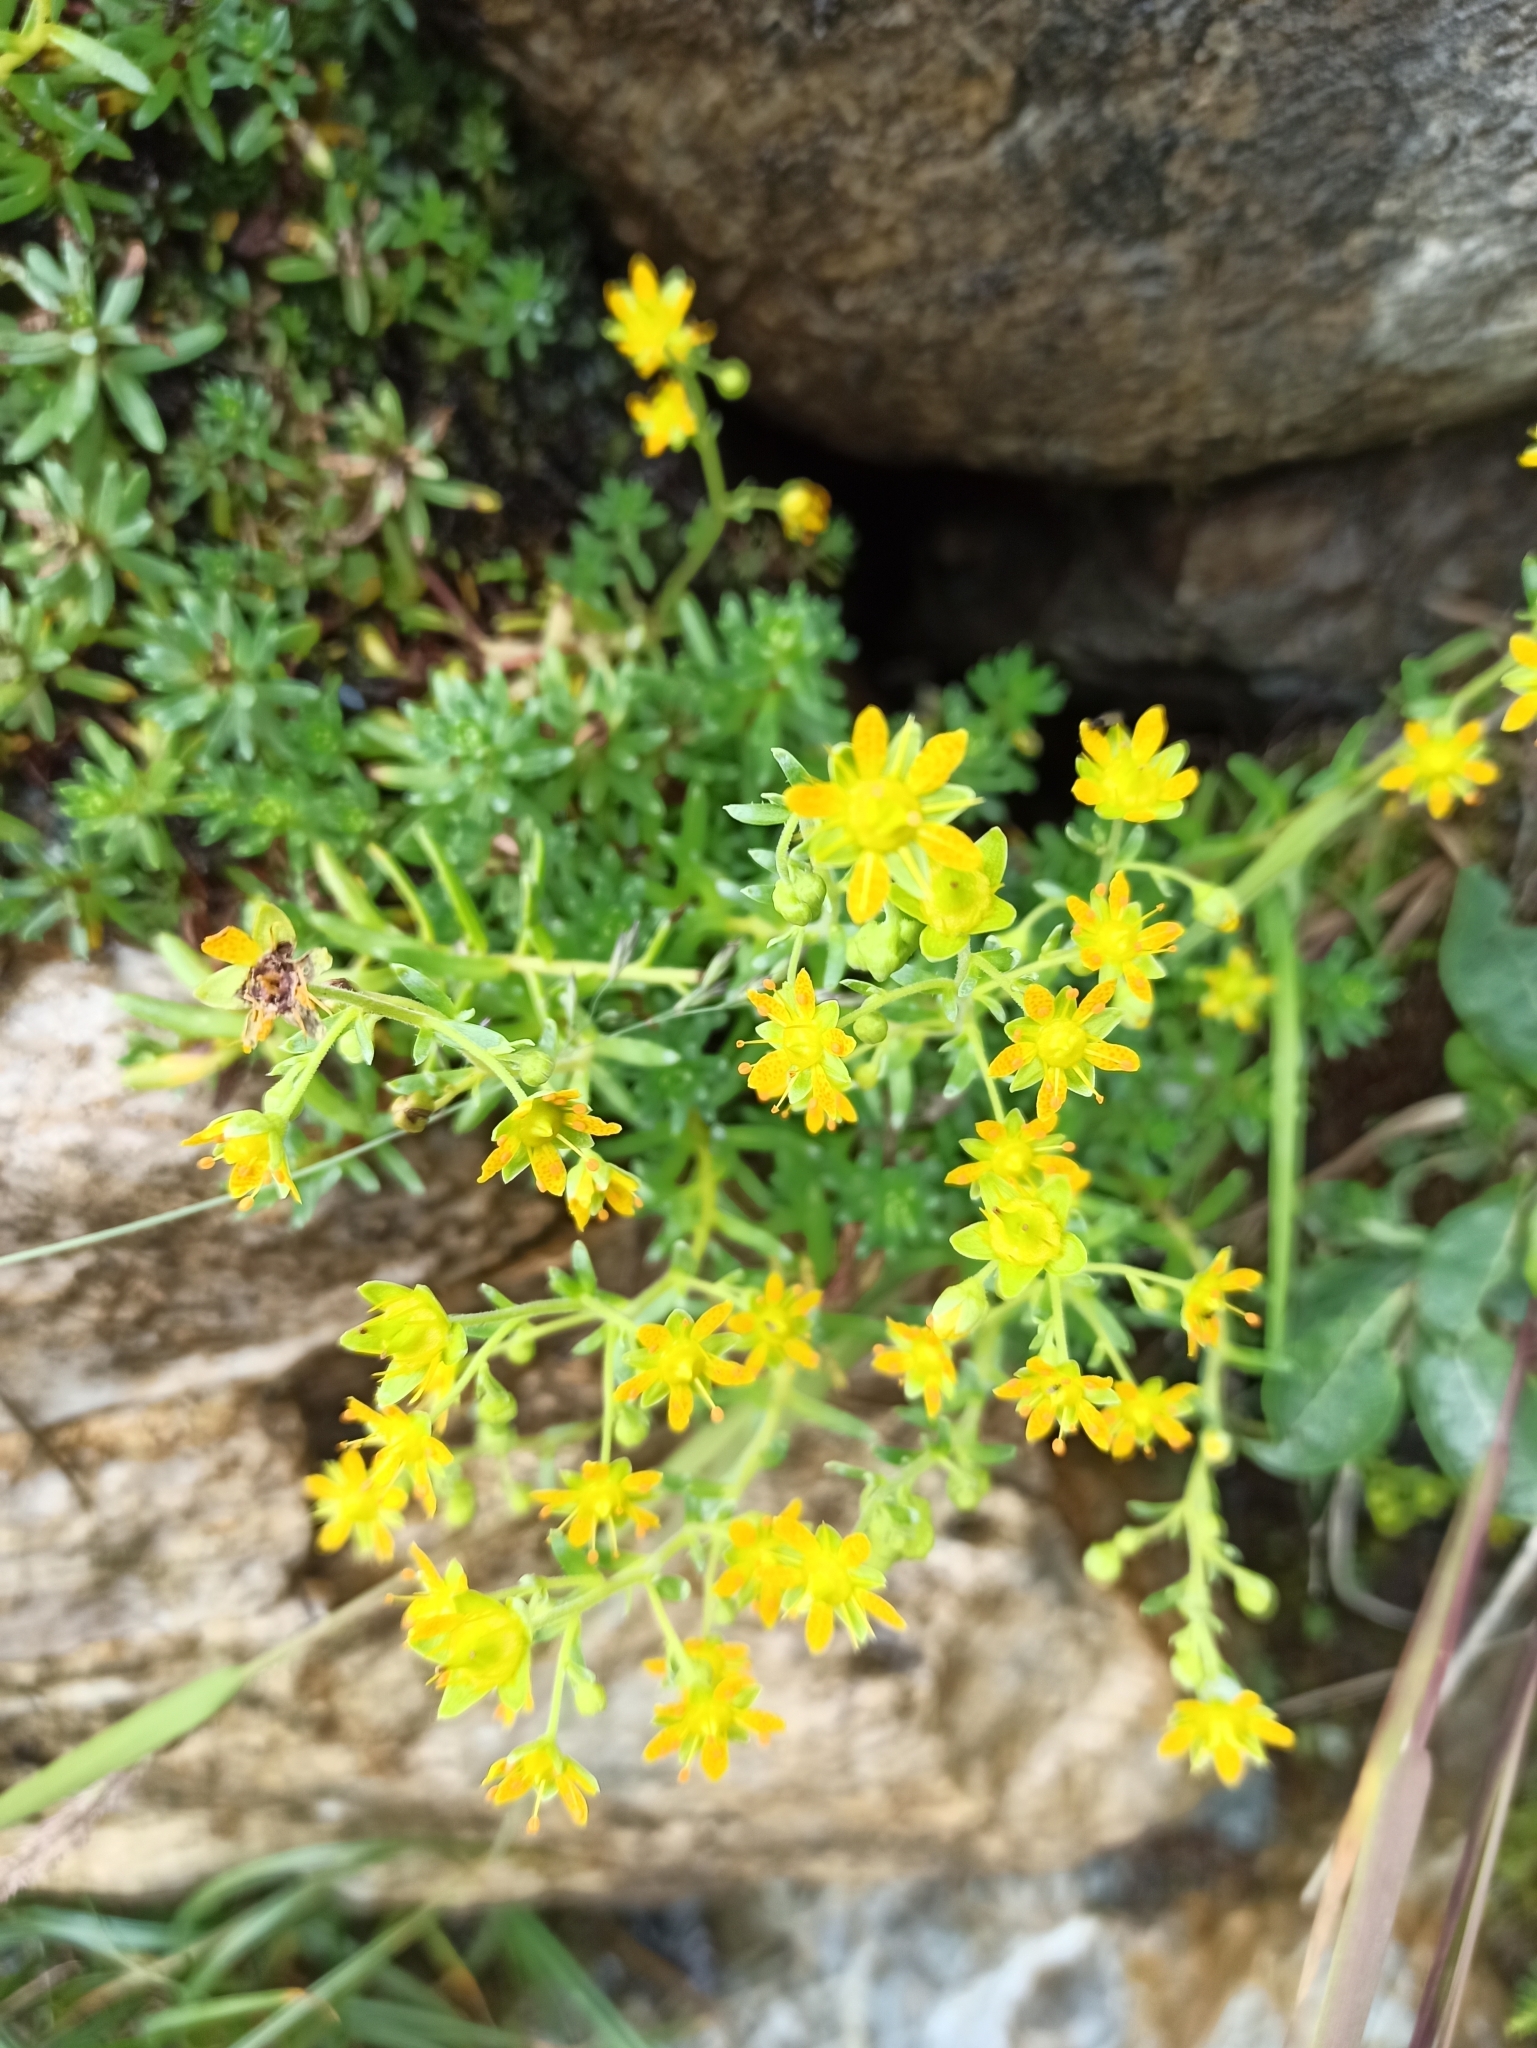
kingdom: Plantae
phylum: Tracheophyta
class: Magnoliopsida
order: Saxifragales
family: Saxifragaceae
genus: Saxifraga
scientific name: Saxifraga aizoides
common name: Yellow mountain saxifrage
